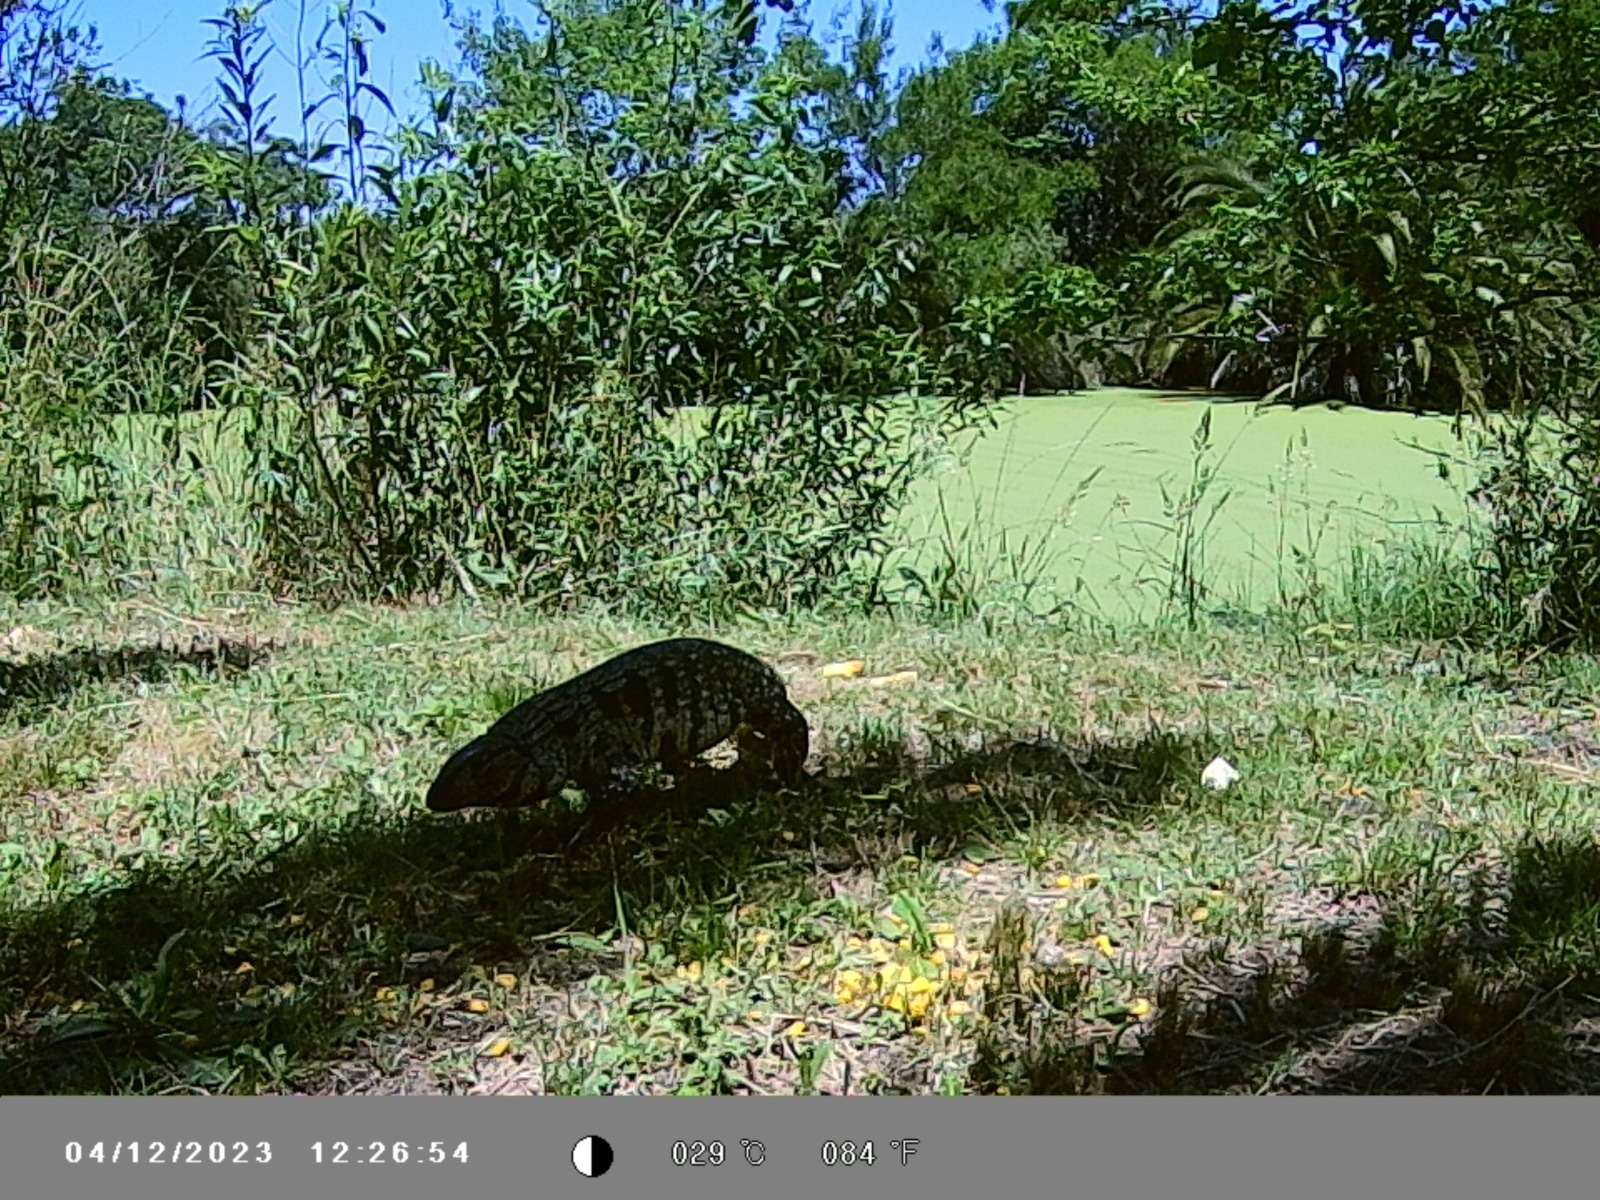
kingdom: Animalia
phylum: Chordata
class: Squamata
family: Teiidae
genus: Salvator
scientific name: Salvator merianae
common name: Argentine black and white tegu
